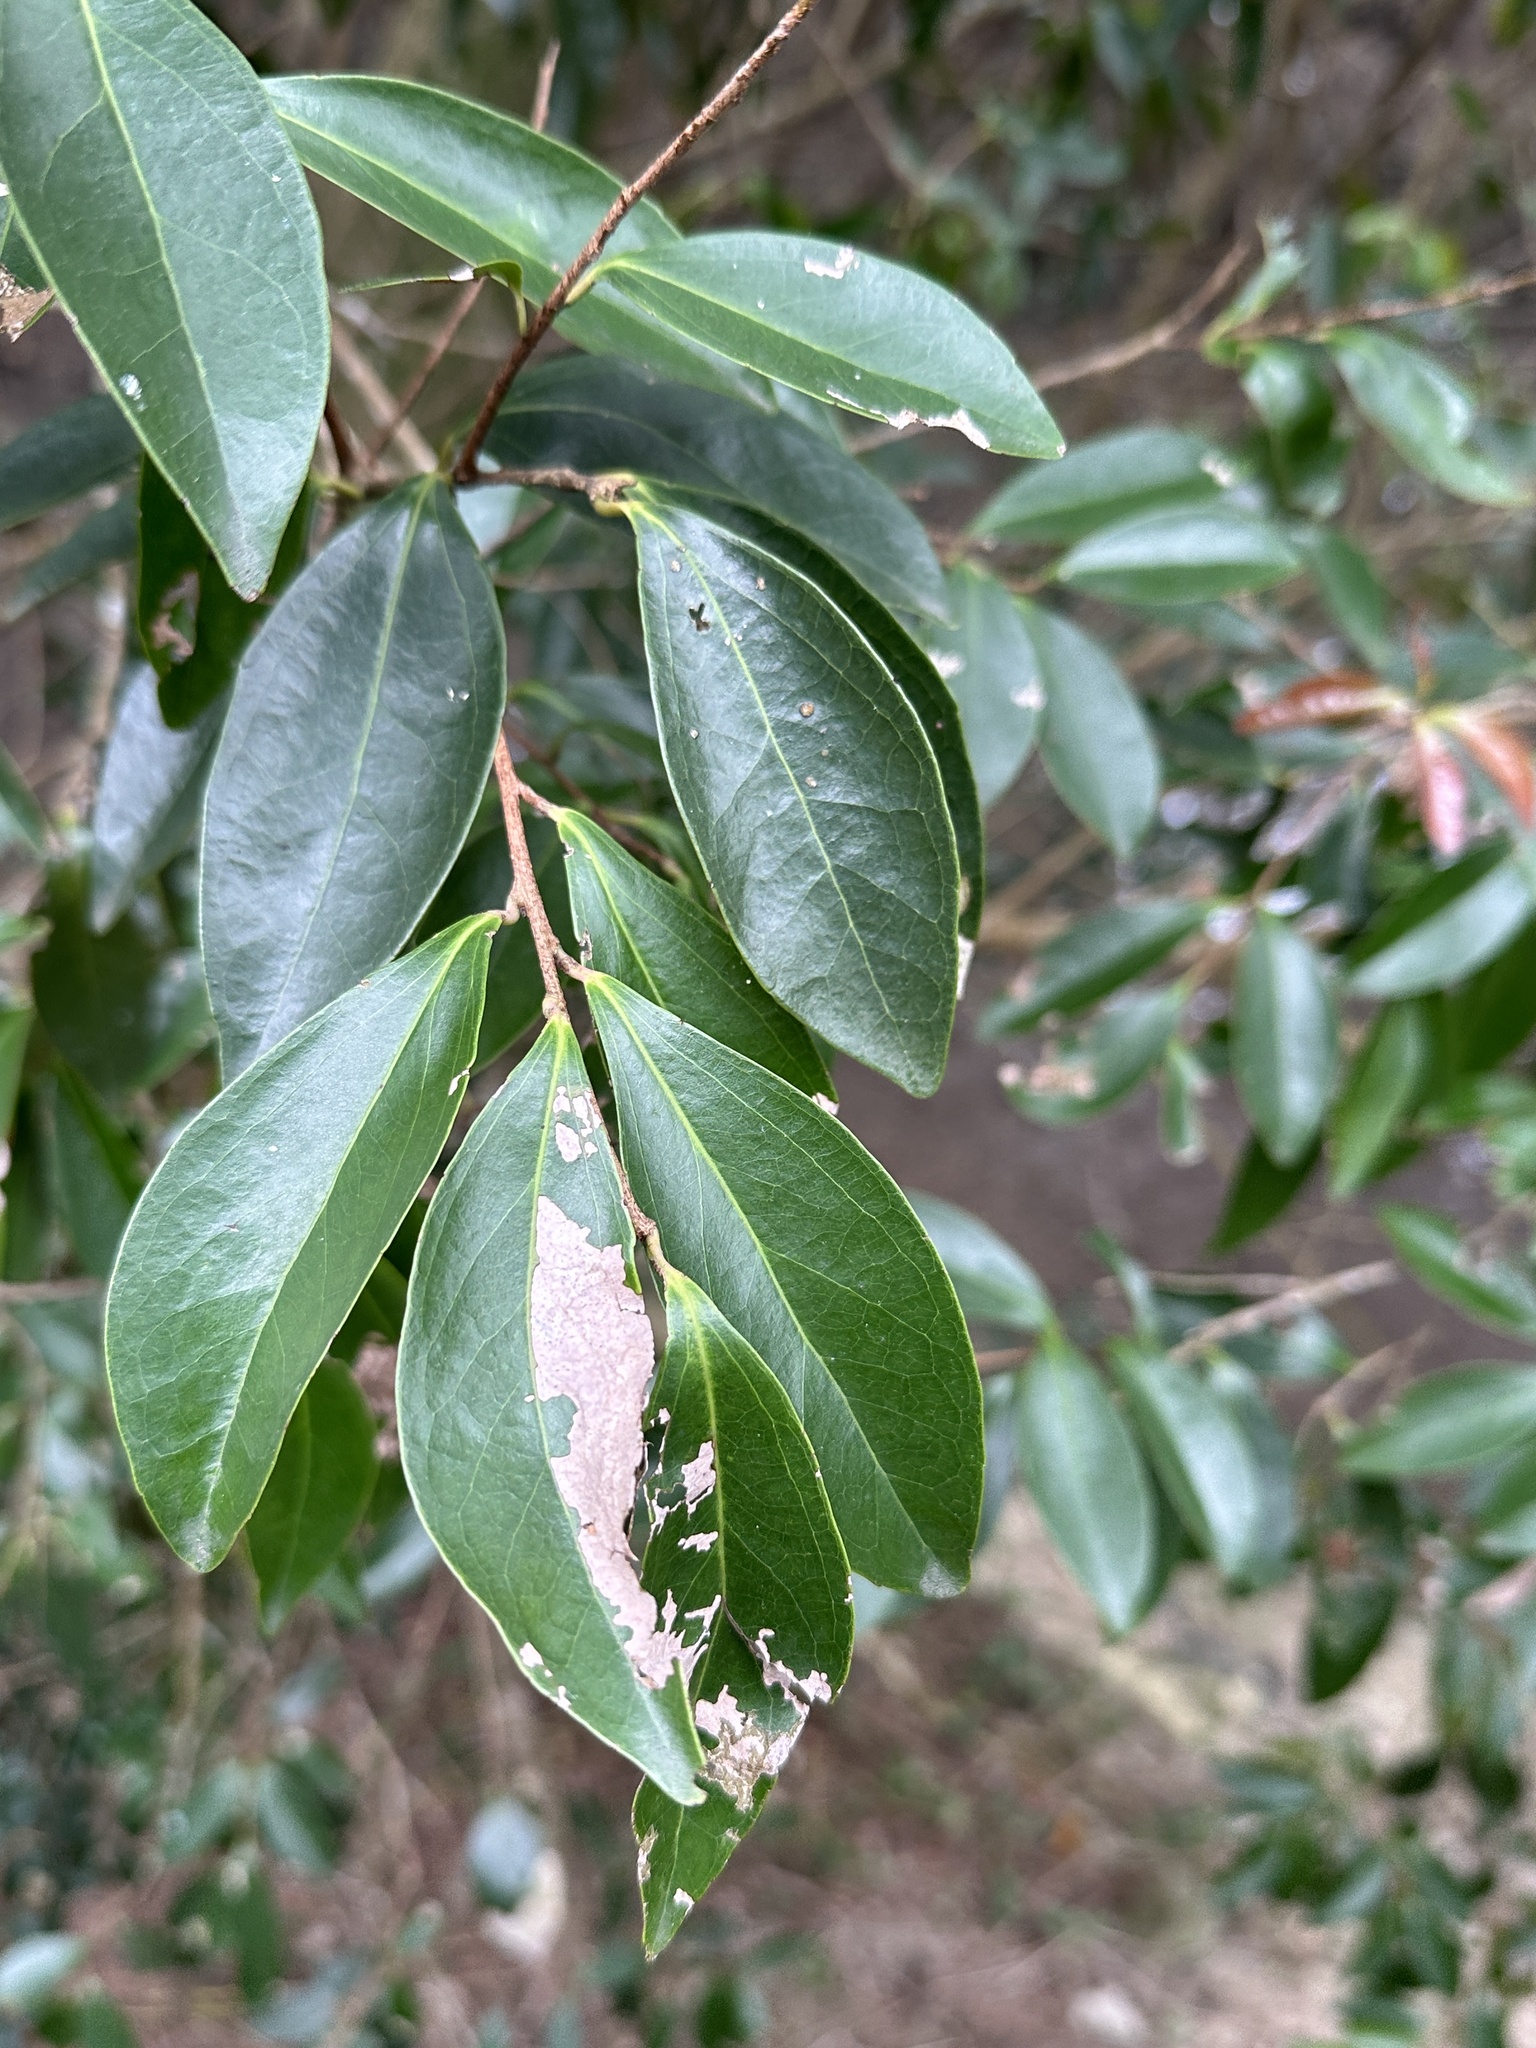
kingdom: Plantae
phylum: Tracheophyta
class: Magnoliopsida
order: Malpighiales
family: Salicaceae
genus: Scolopia
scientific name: Scolopia oldhamii
